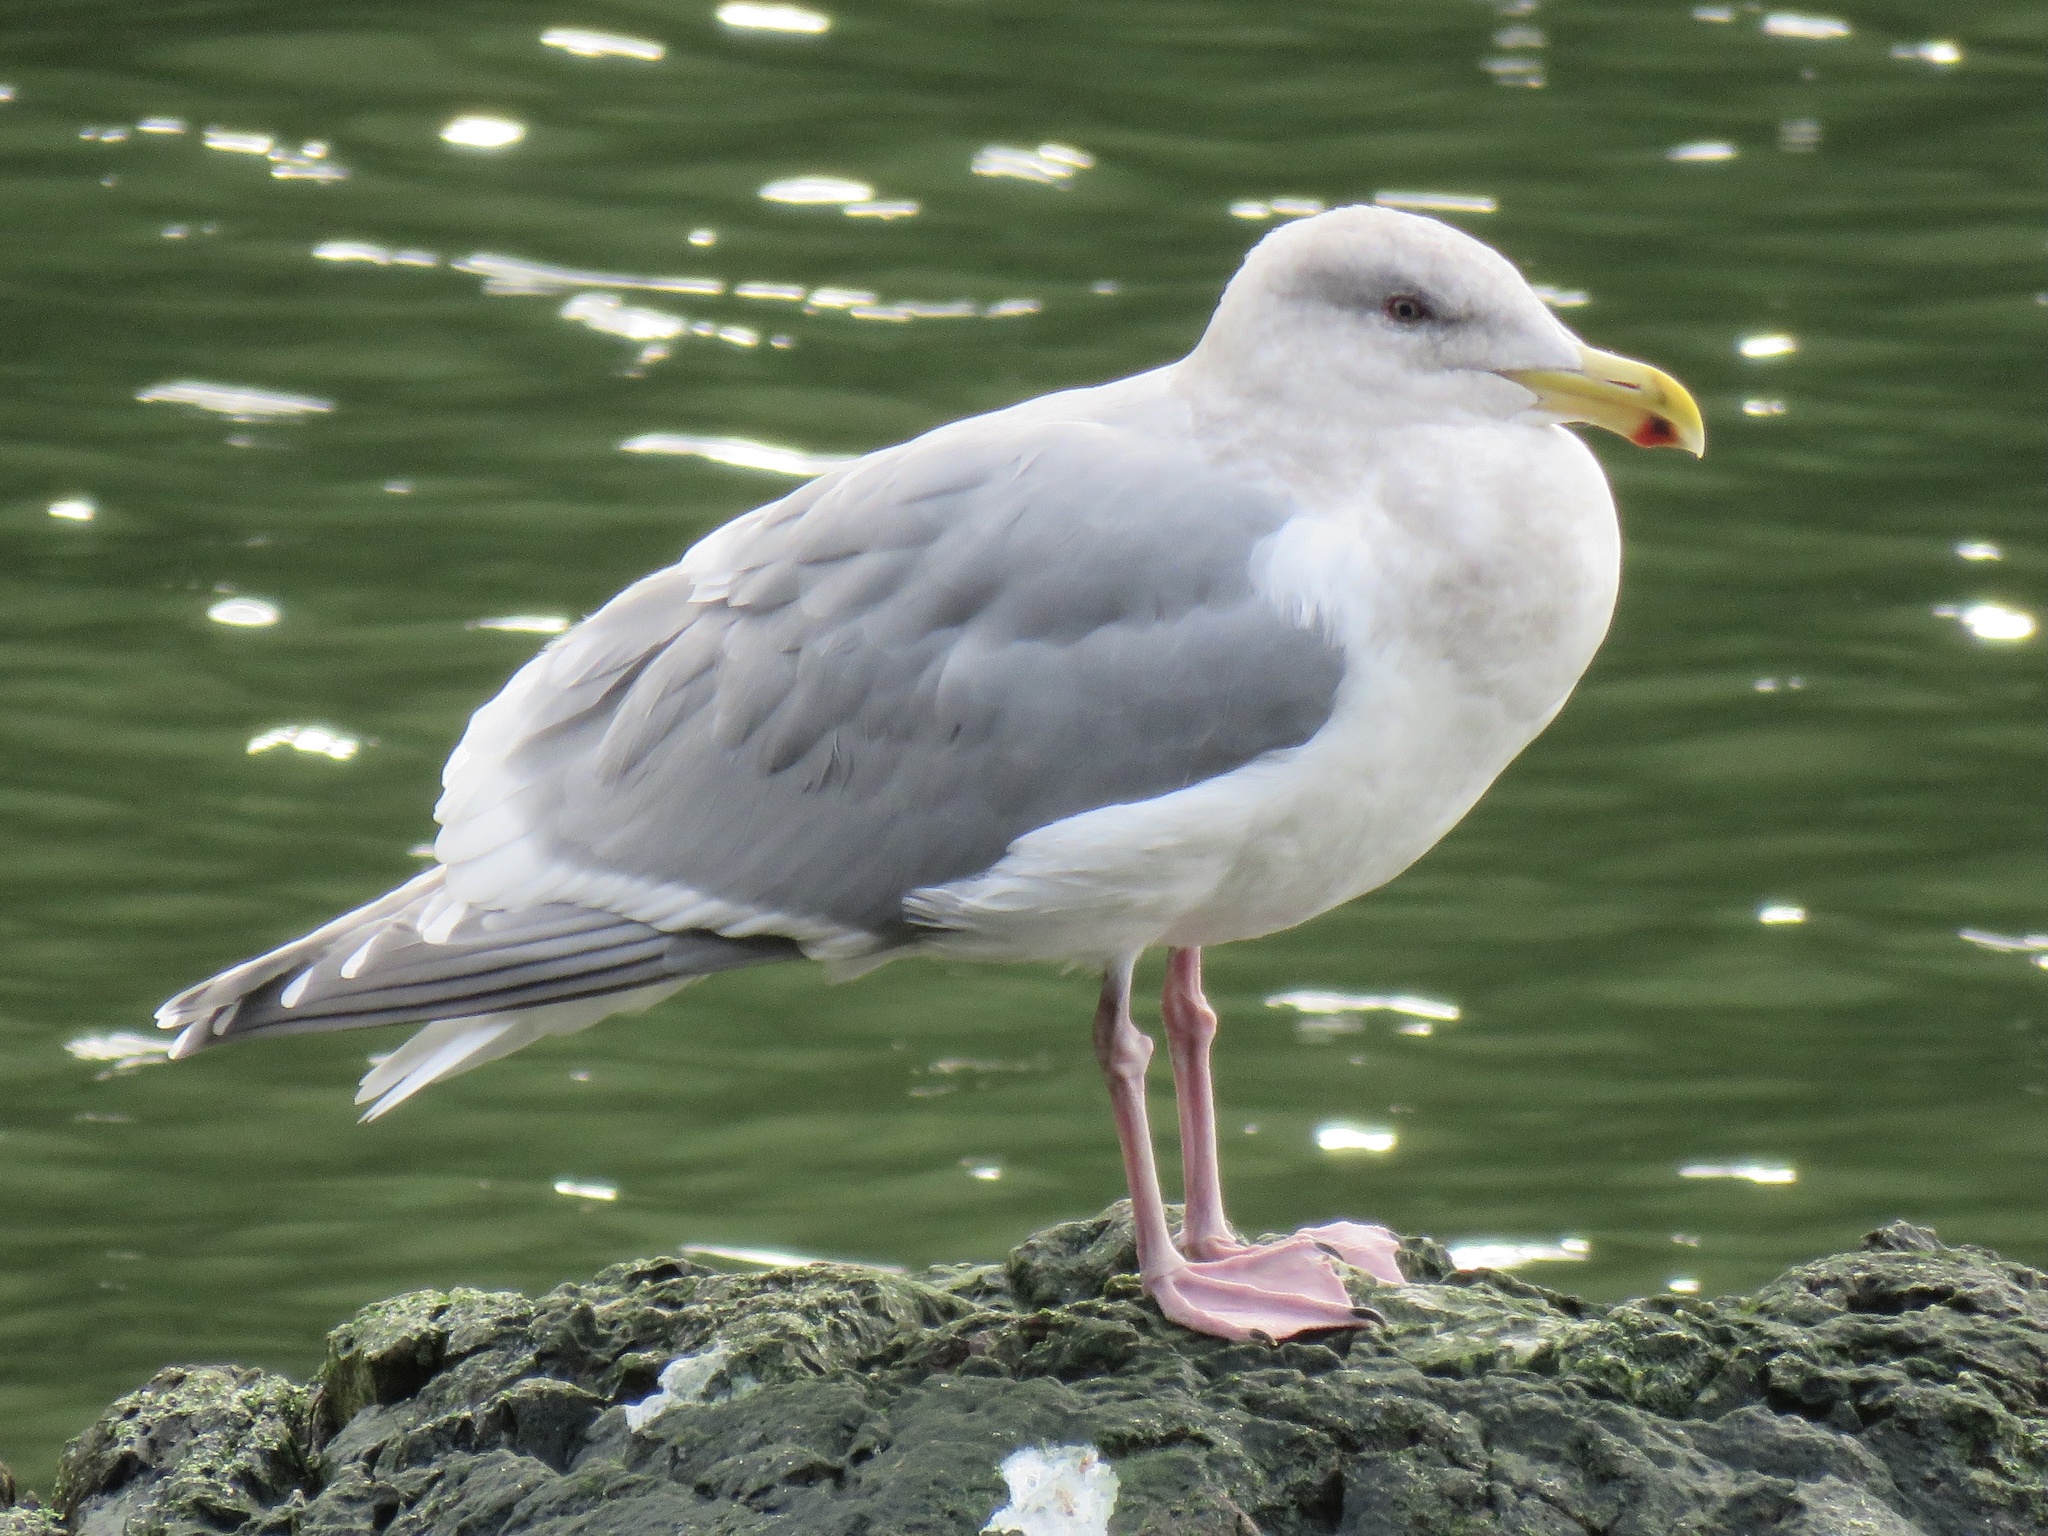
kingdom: Animalia
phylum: Chordata
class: Aves
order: Charadriiformes
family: Laridae
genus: Larus
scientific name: Larus
